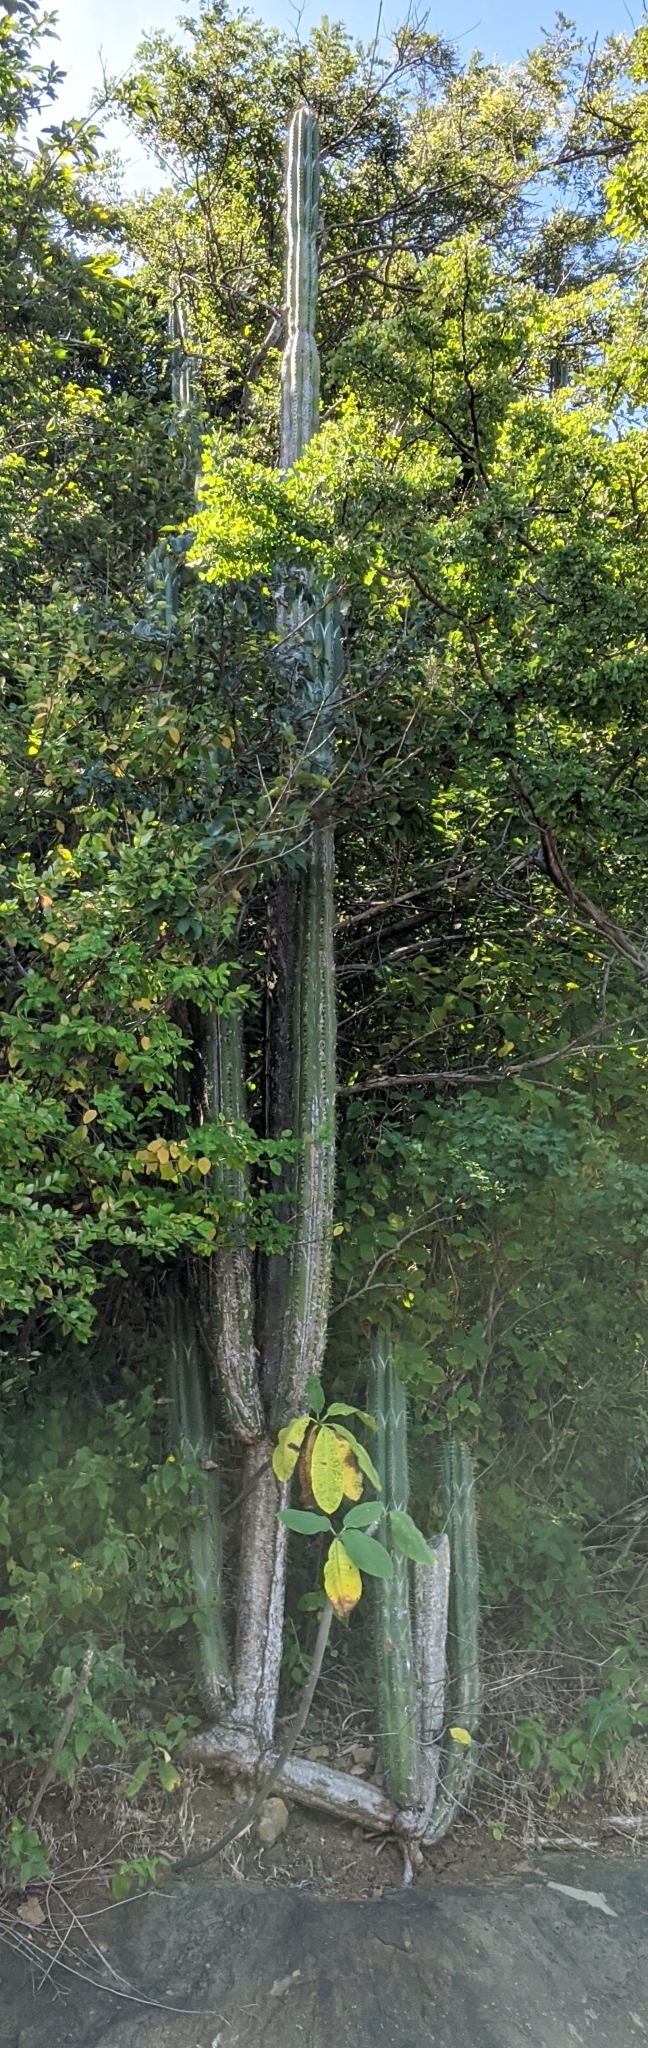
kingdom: Plantae
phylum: Tracheophyta
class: Magnoliopsida
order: Caryophyllales
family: Cactaceae
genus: Stenocereus
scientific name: Stenocereus aragonii
